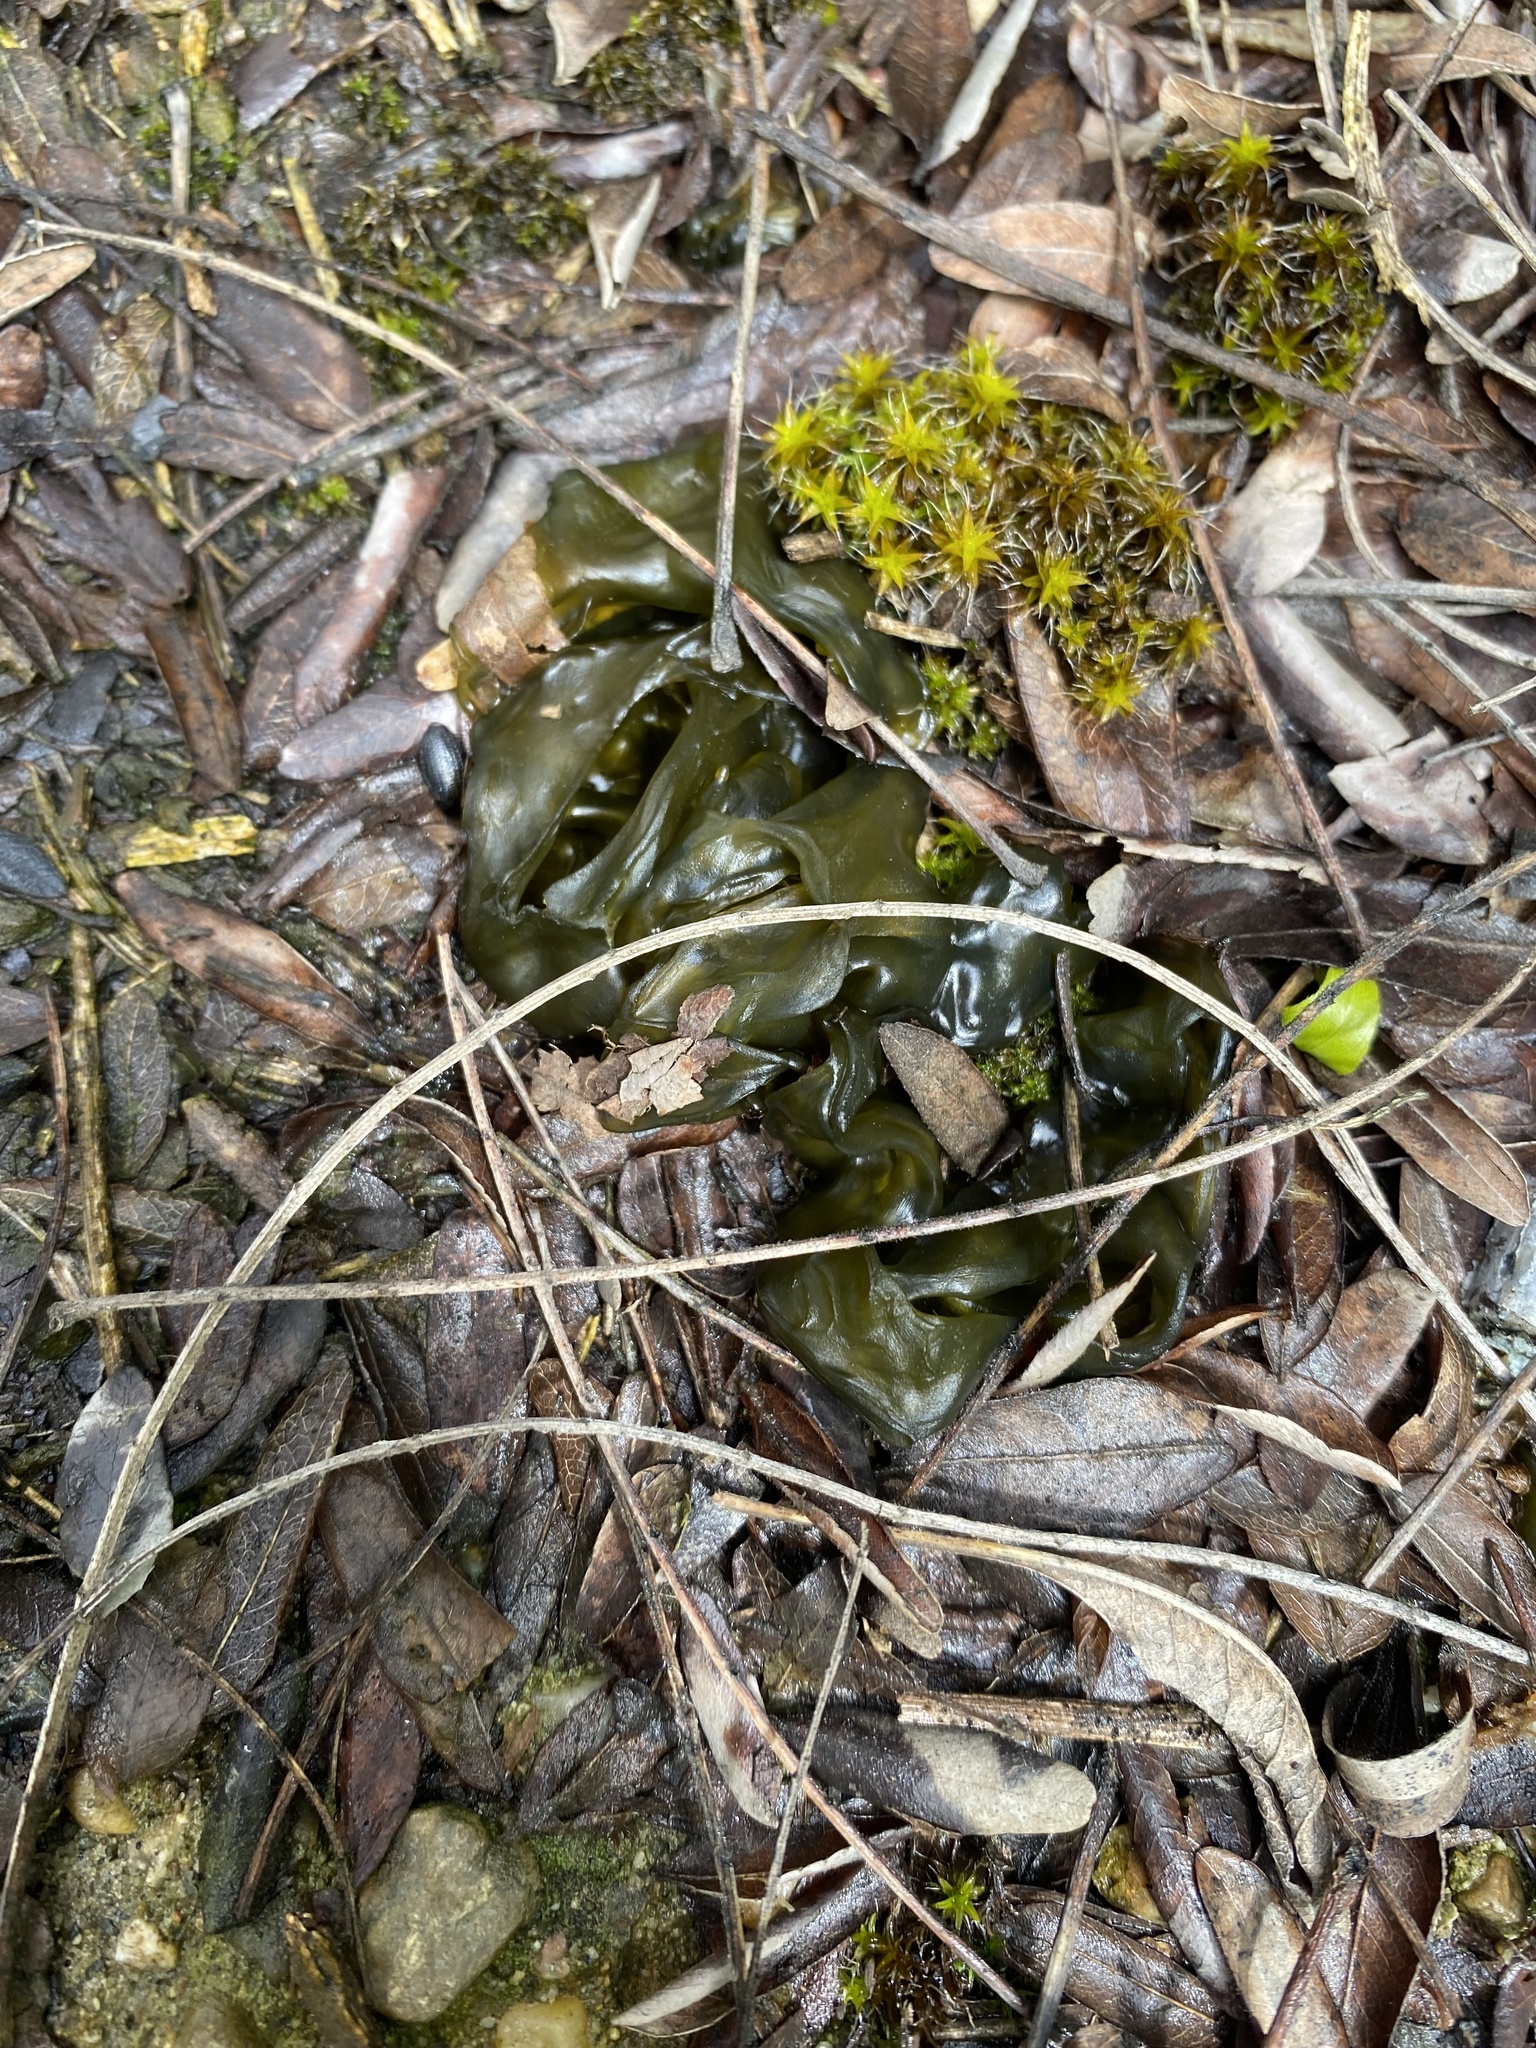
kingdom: Bacteria
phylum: Cyanobacteria
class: Cyanobacteriia
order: Cyanobacteriales
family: Nostocaceae
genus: Nostoc
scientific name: Nostoc commune
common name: Star jelly
